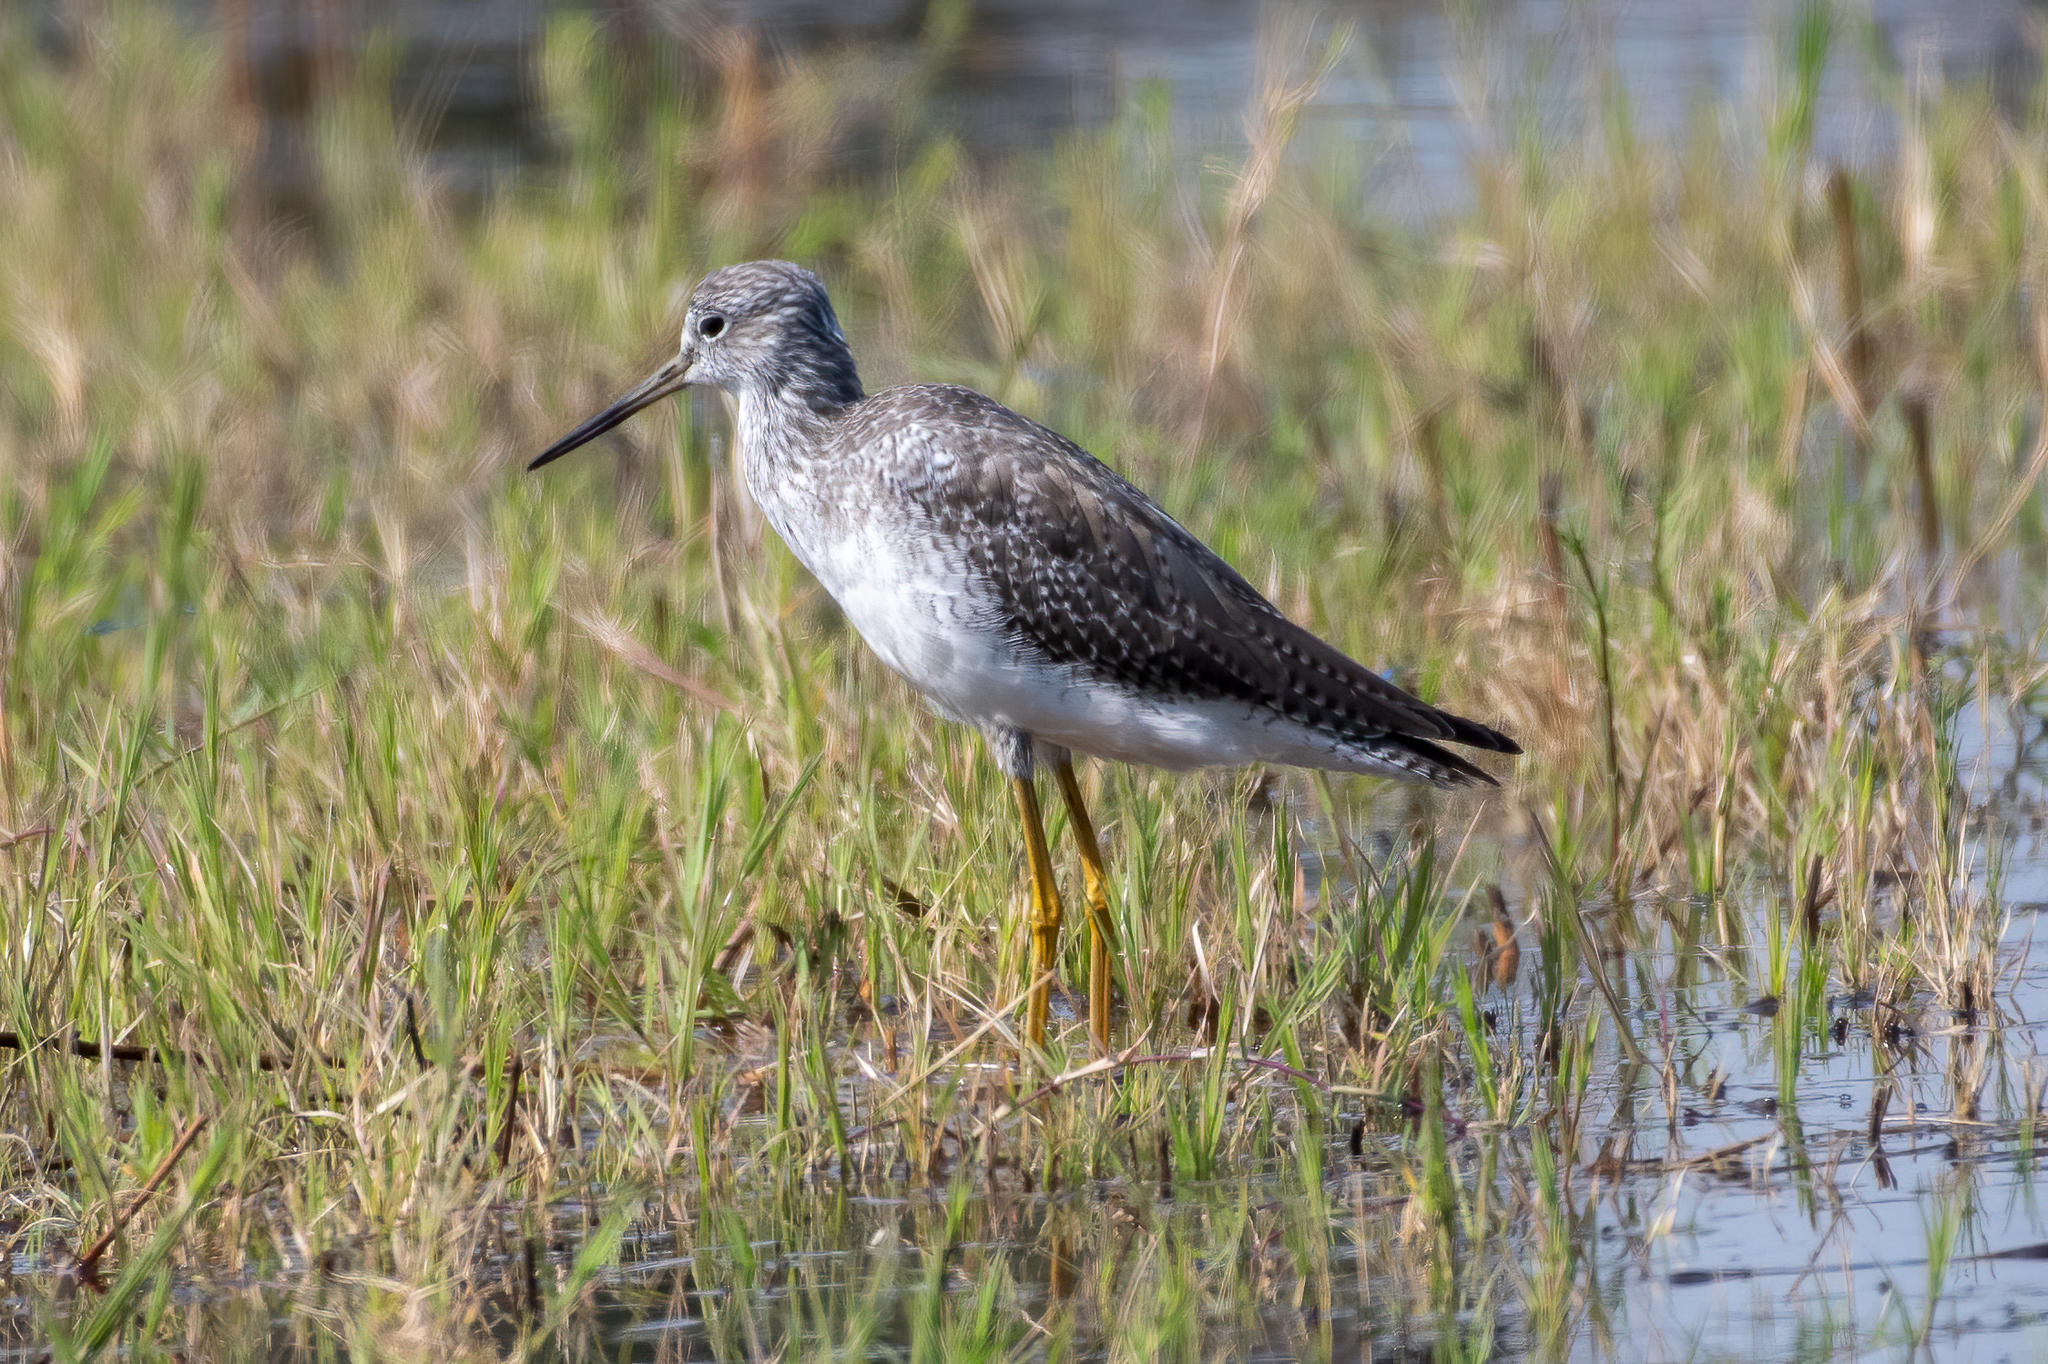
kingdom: Animalia
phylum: Chordata
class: Aves
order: Charadriiformes
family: Scolopacidae
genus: Tringa
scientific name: Tringa melanoleuca
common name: Greater yellowlegs
